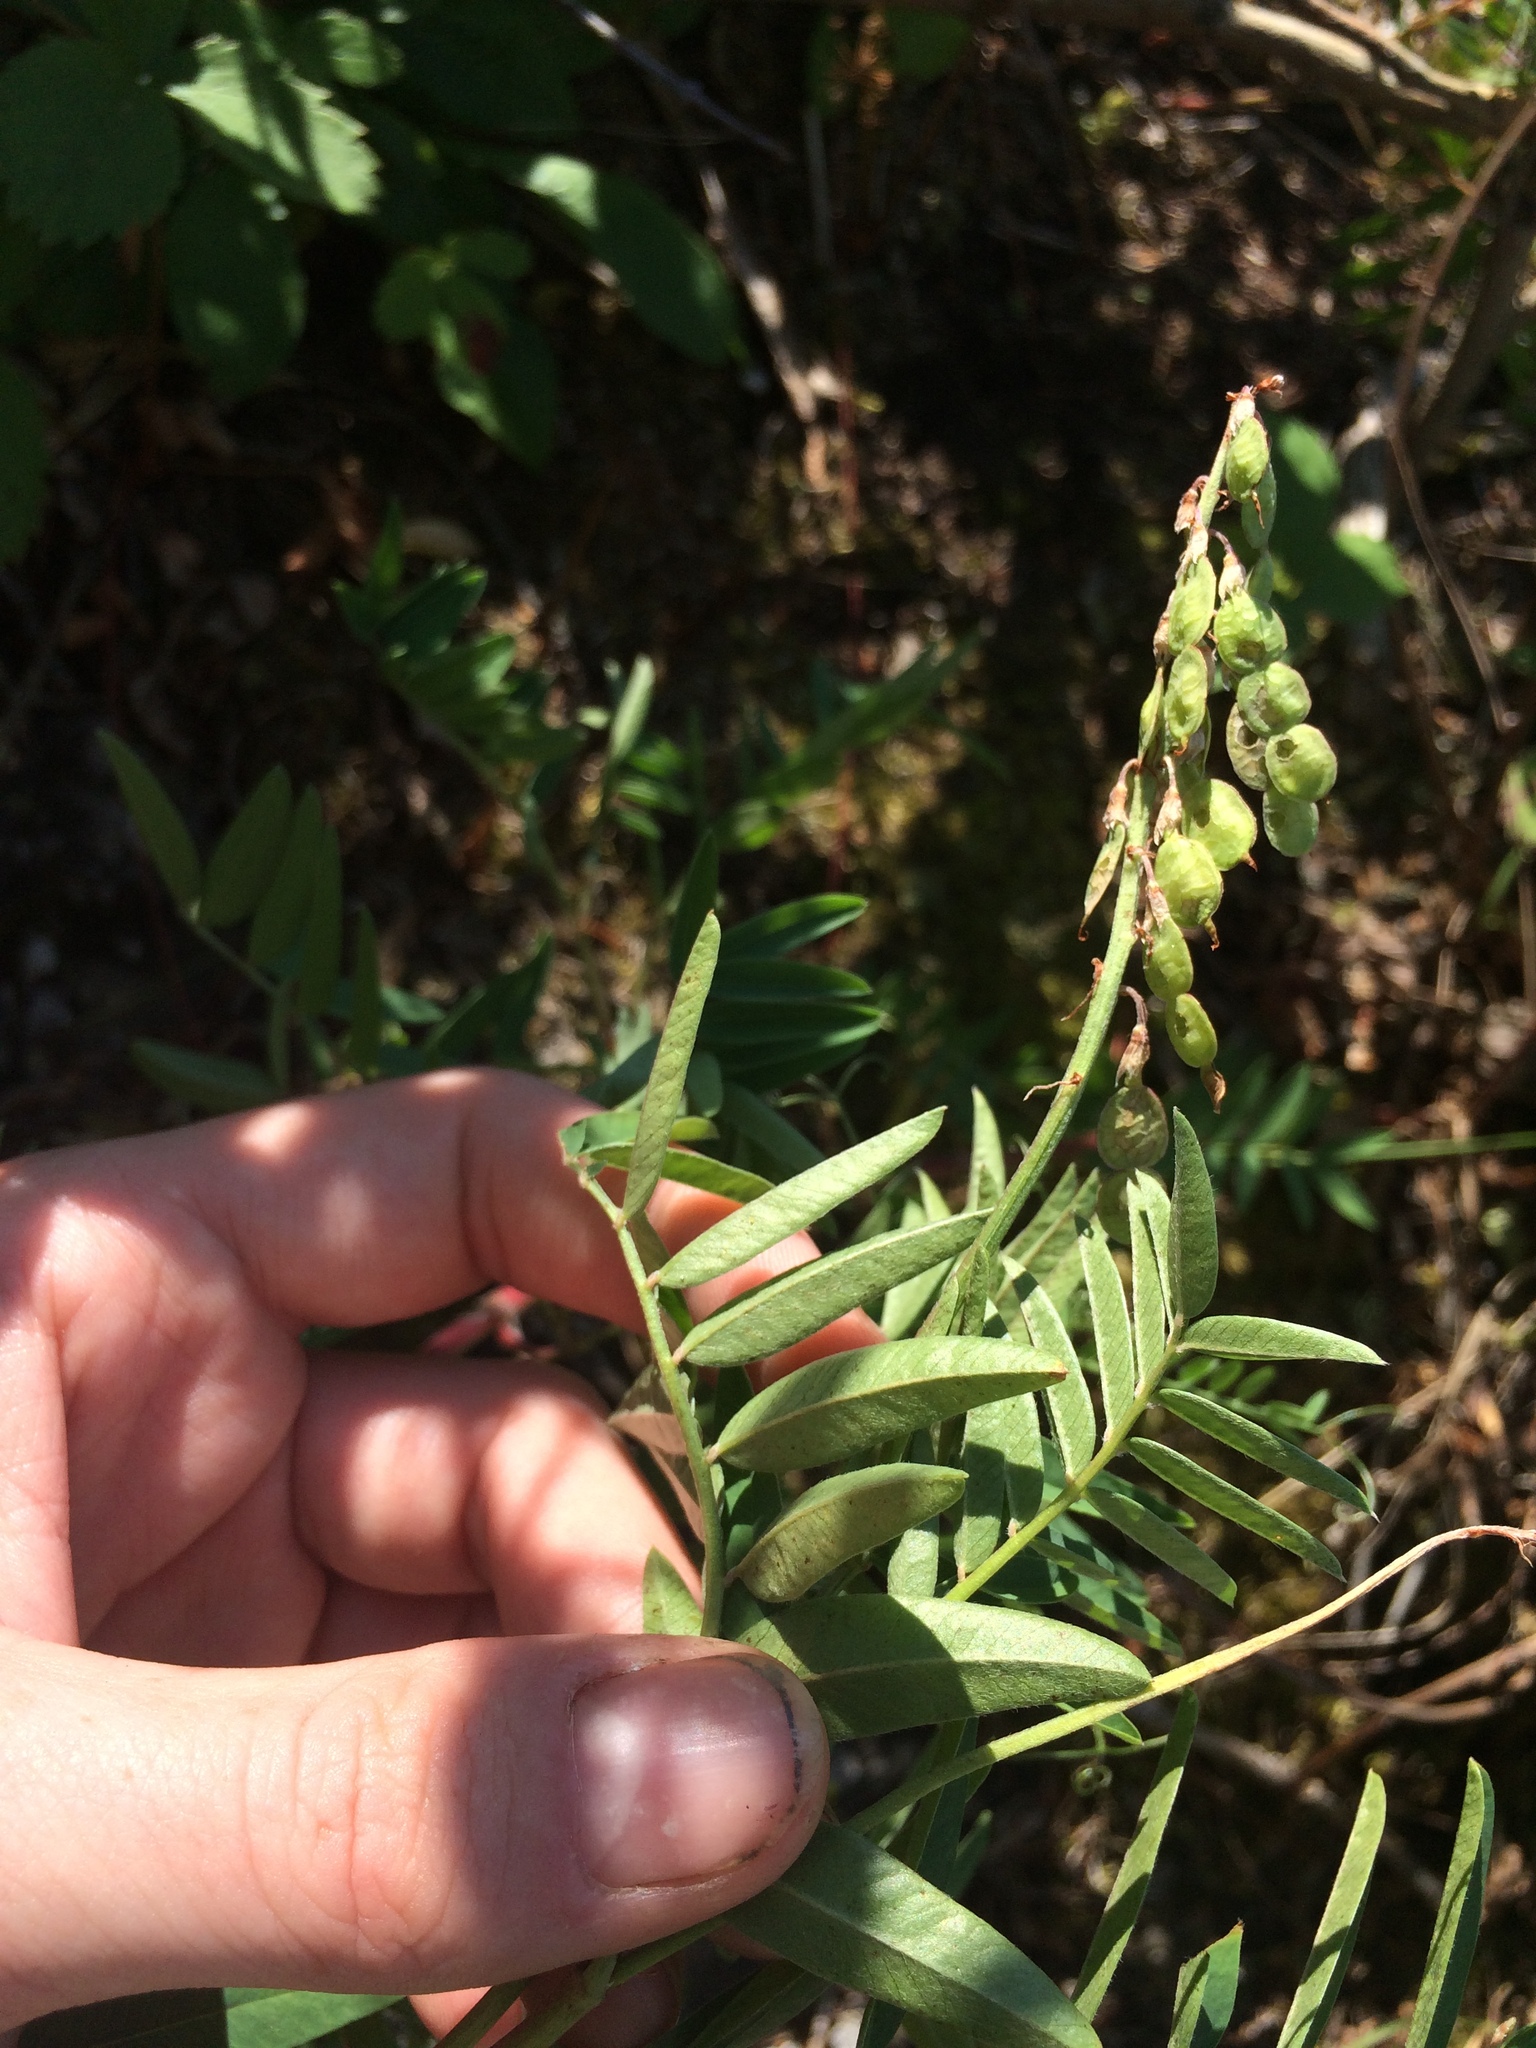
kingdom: Plantae
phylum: Tracheophyta
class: Magnoliopsida
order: Fabales
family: Fabaceae
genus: Hedysarum
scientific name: Hedysarum alpinum
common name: Alpine sweet-vetch
